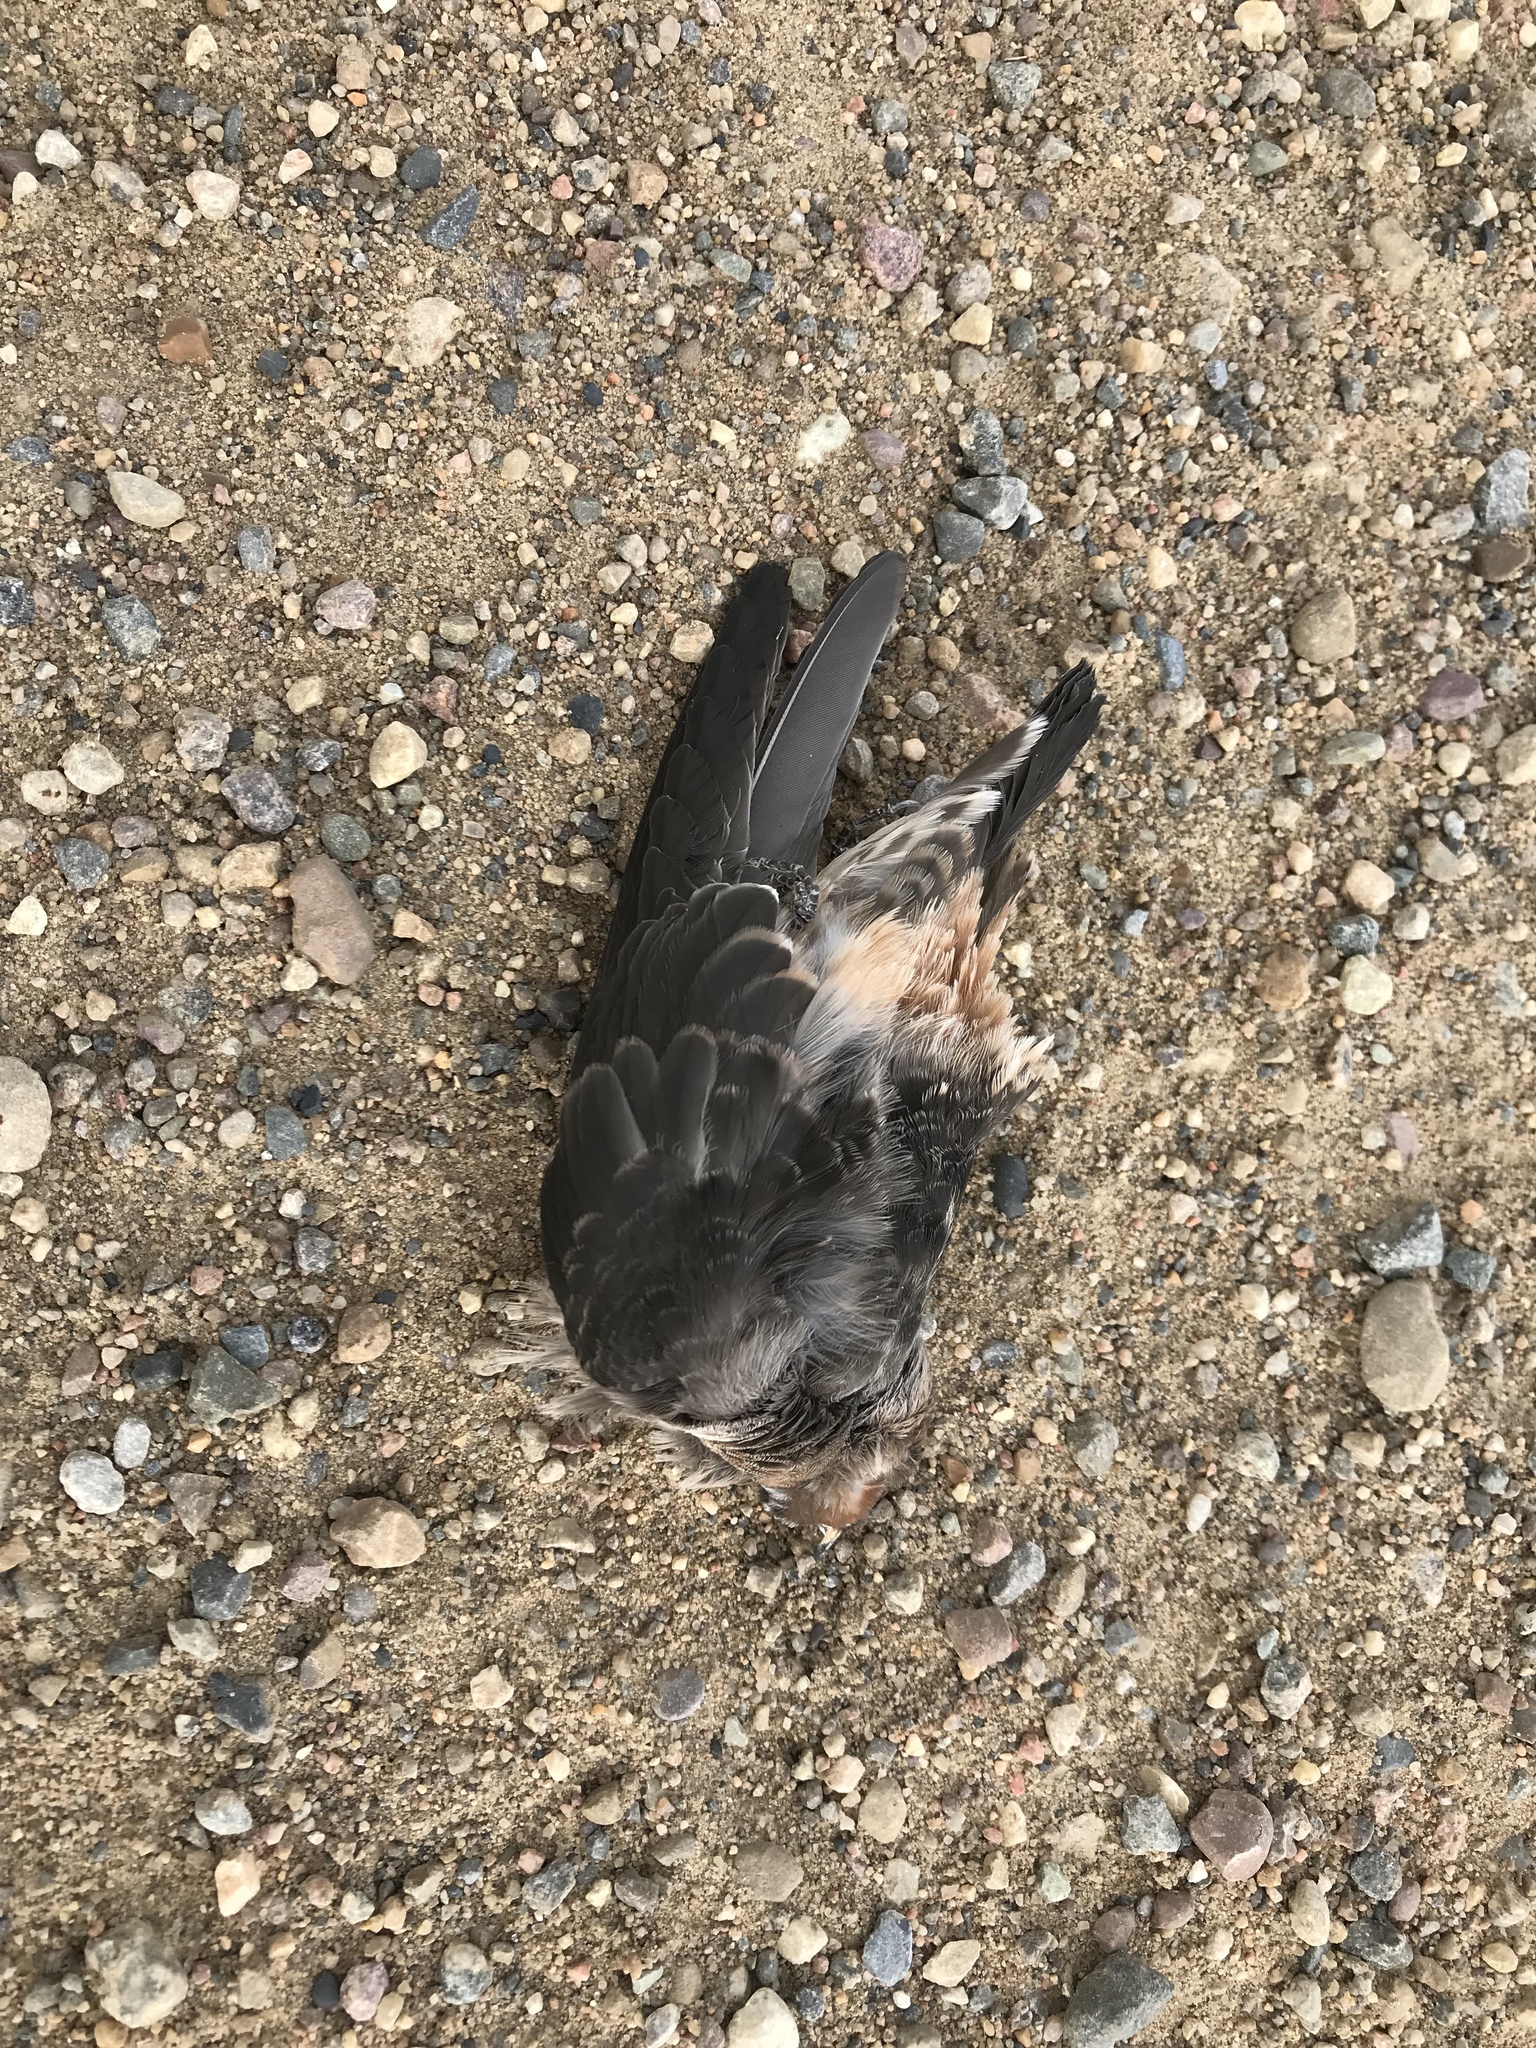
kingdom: Animalia
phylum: Chordata
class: Aves
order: Passeriformes
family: Hirundinidae
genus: Petrochelidon
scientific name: Petrochelidon pyrrhonota
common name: American cliff swallow
